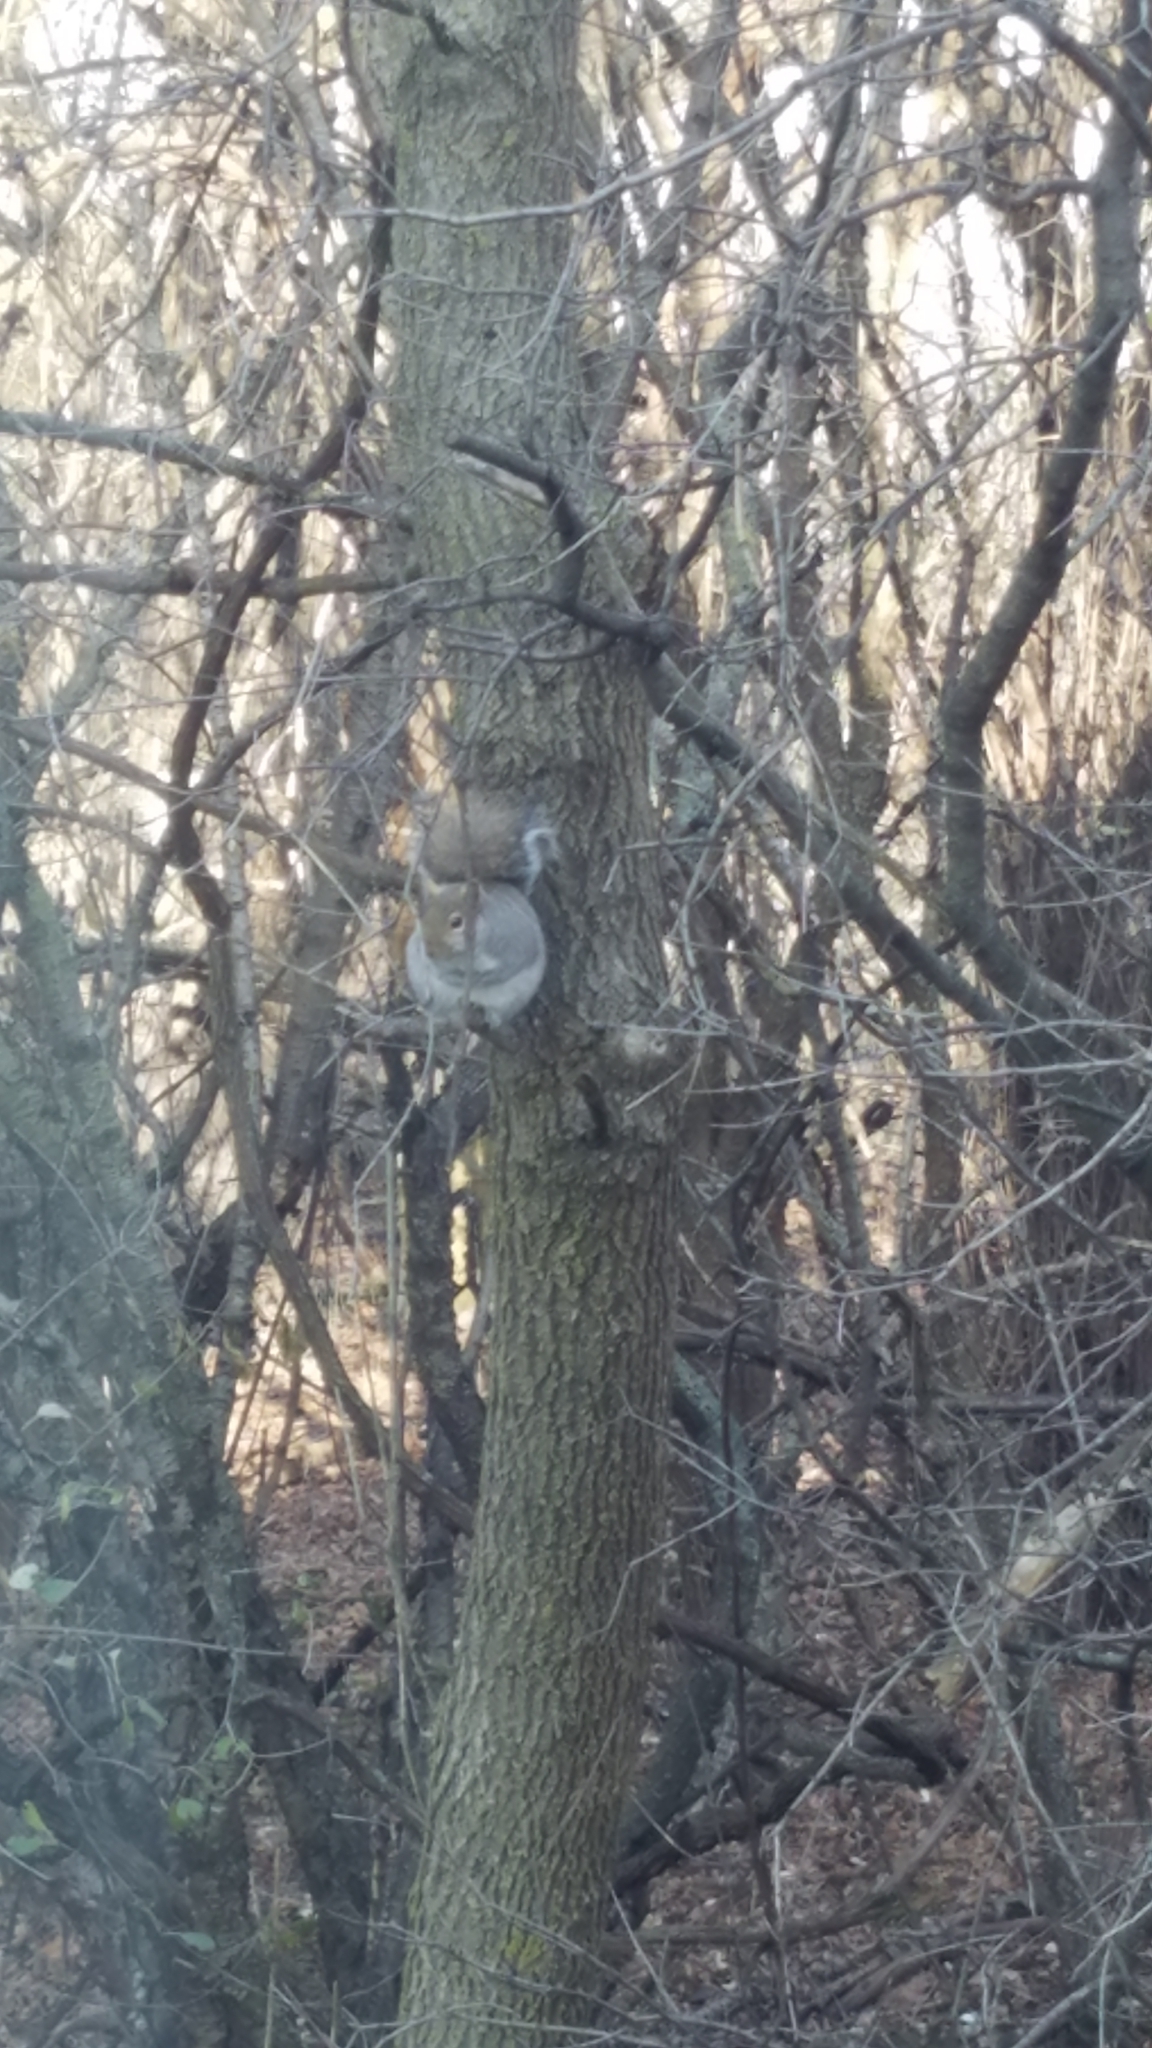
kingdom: Animalia
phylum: Chordata
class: Mammalia
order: Rodentia
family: Sciuridae
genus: Sciurus
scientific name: Sciurus carolinensis
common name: Eastern gray squirrel
